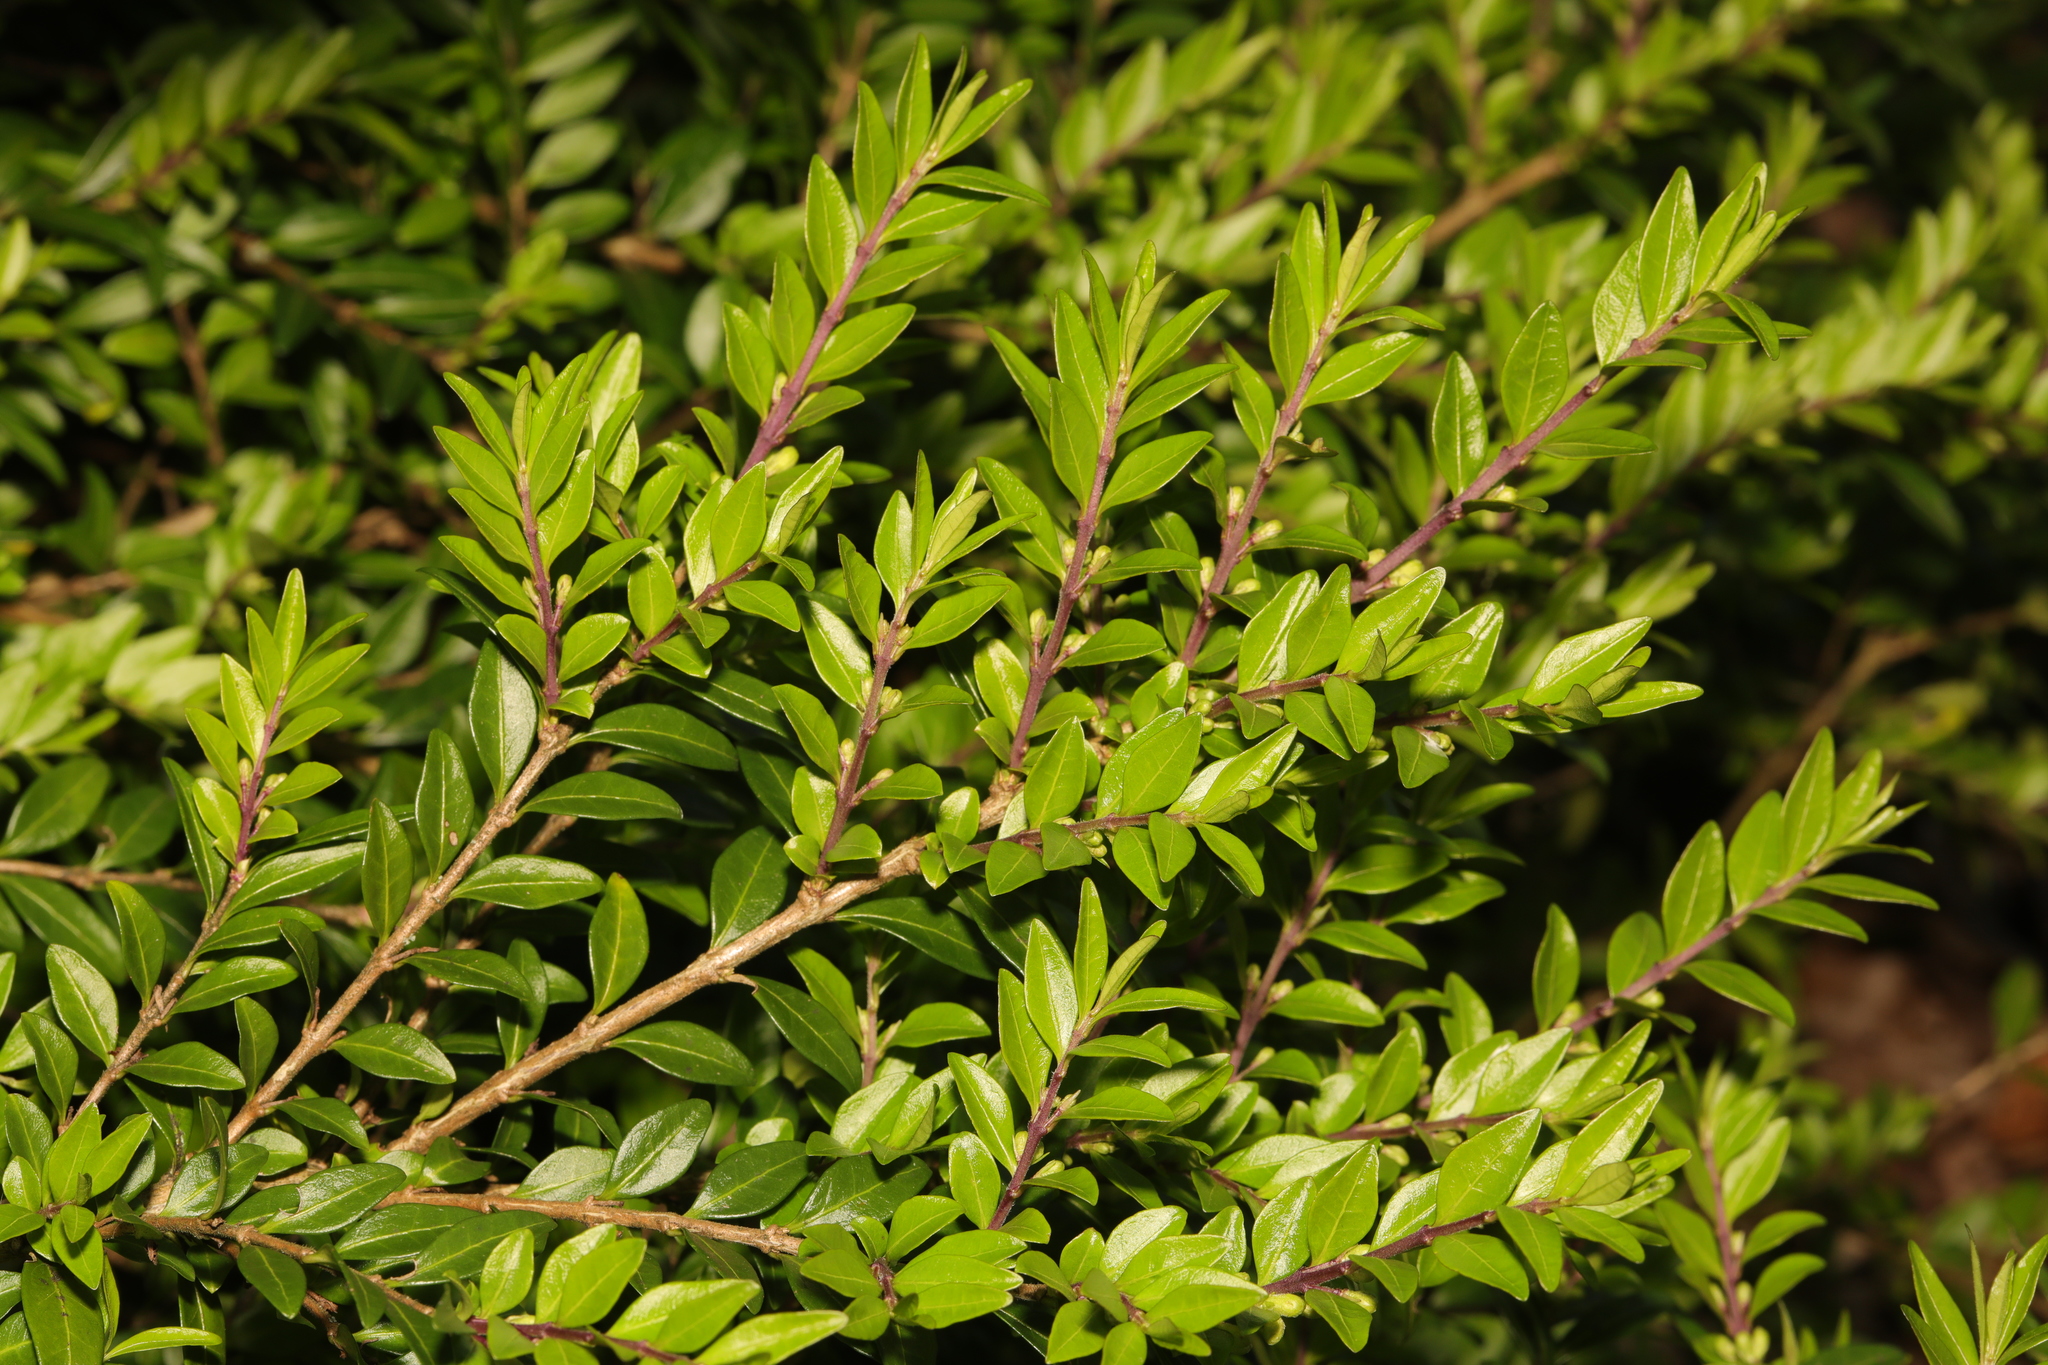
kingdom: Plantae
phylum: Tracheophyta
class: Magnoliopsida
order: Dipsacales
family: Caprifoliaceae
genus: Lonicera
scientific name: Lonicera pileata
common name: Box-leaved honeysuckle
